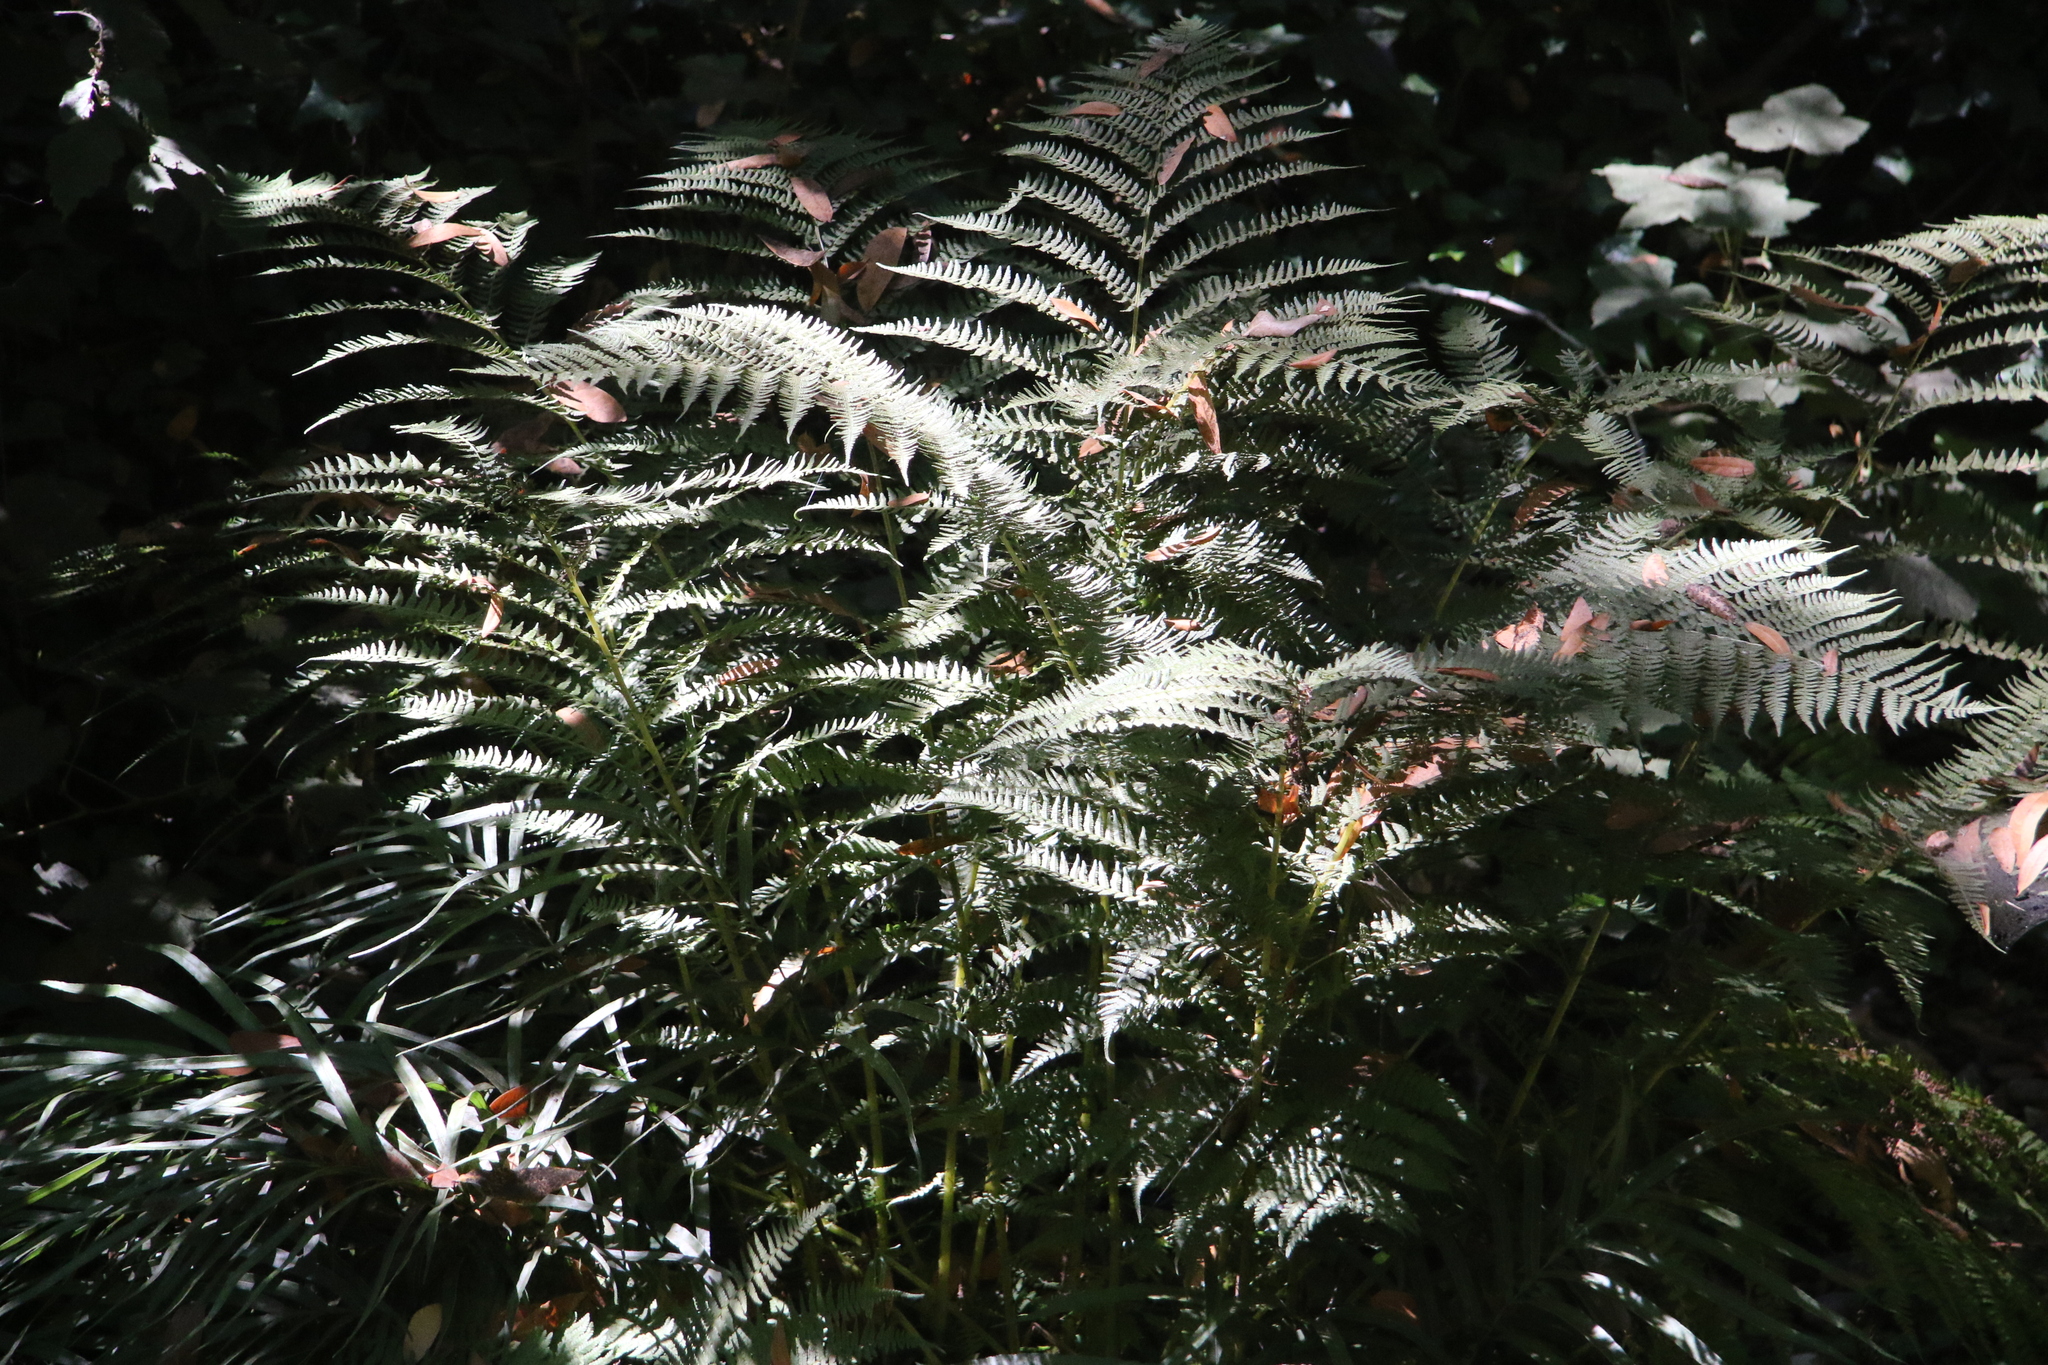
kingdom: Plantae
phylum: Tracheophyta
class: Polypodiopsida
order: Polypodiales
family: Dennstaedtiaceae
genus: Pteridium
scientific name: Pteridium aquilinum
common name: Bracken
